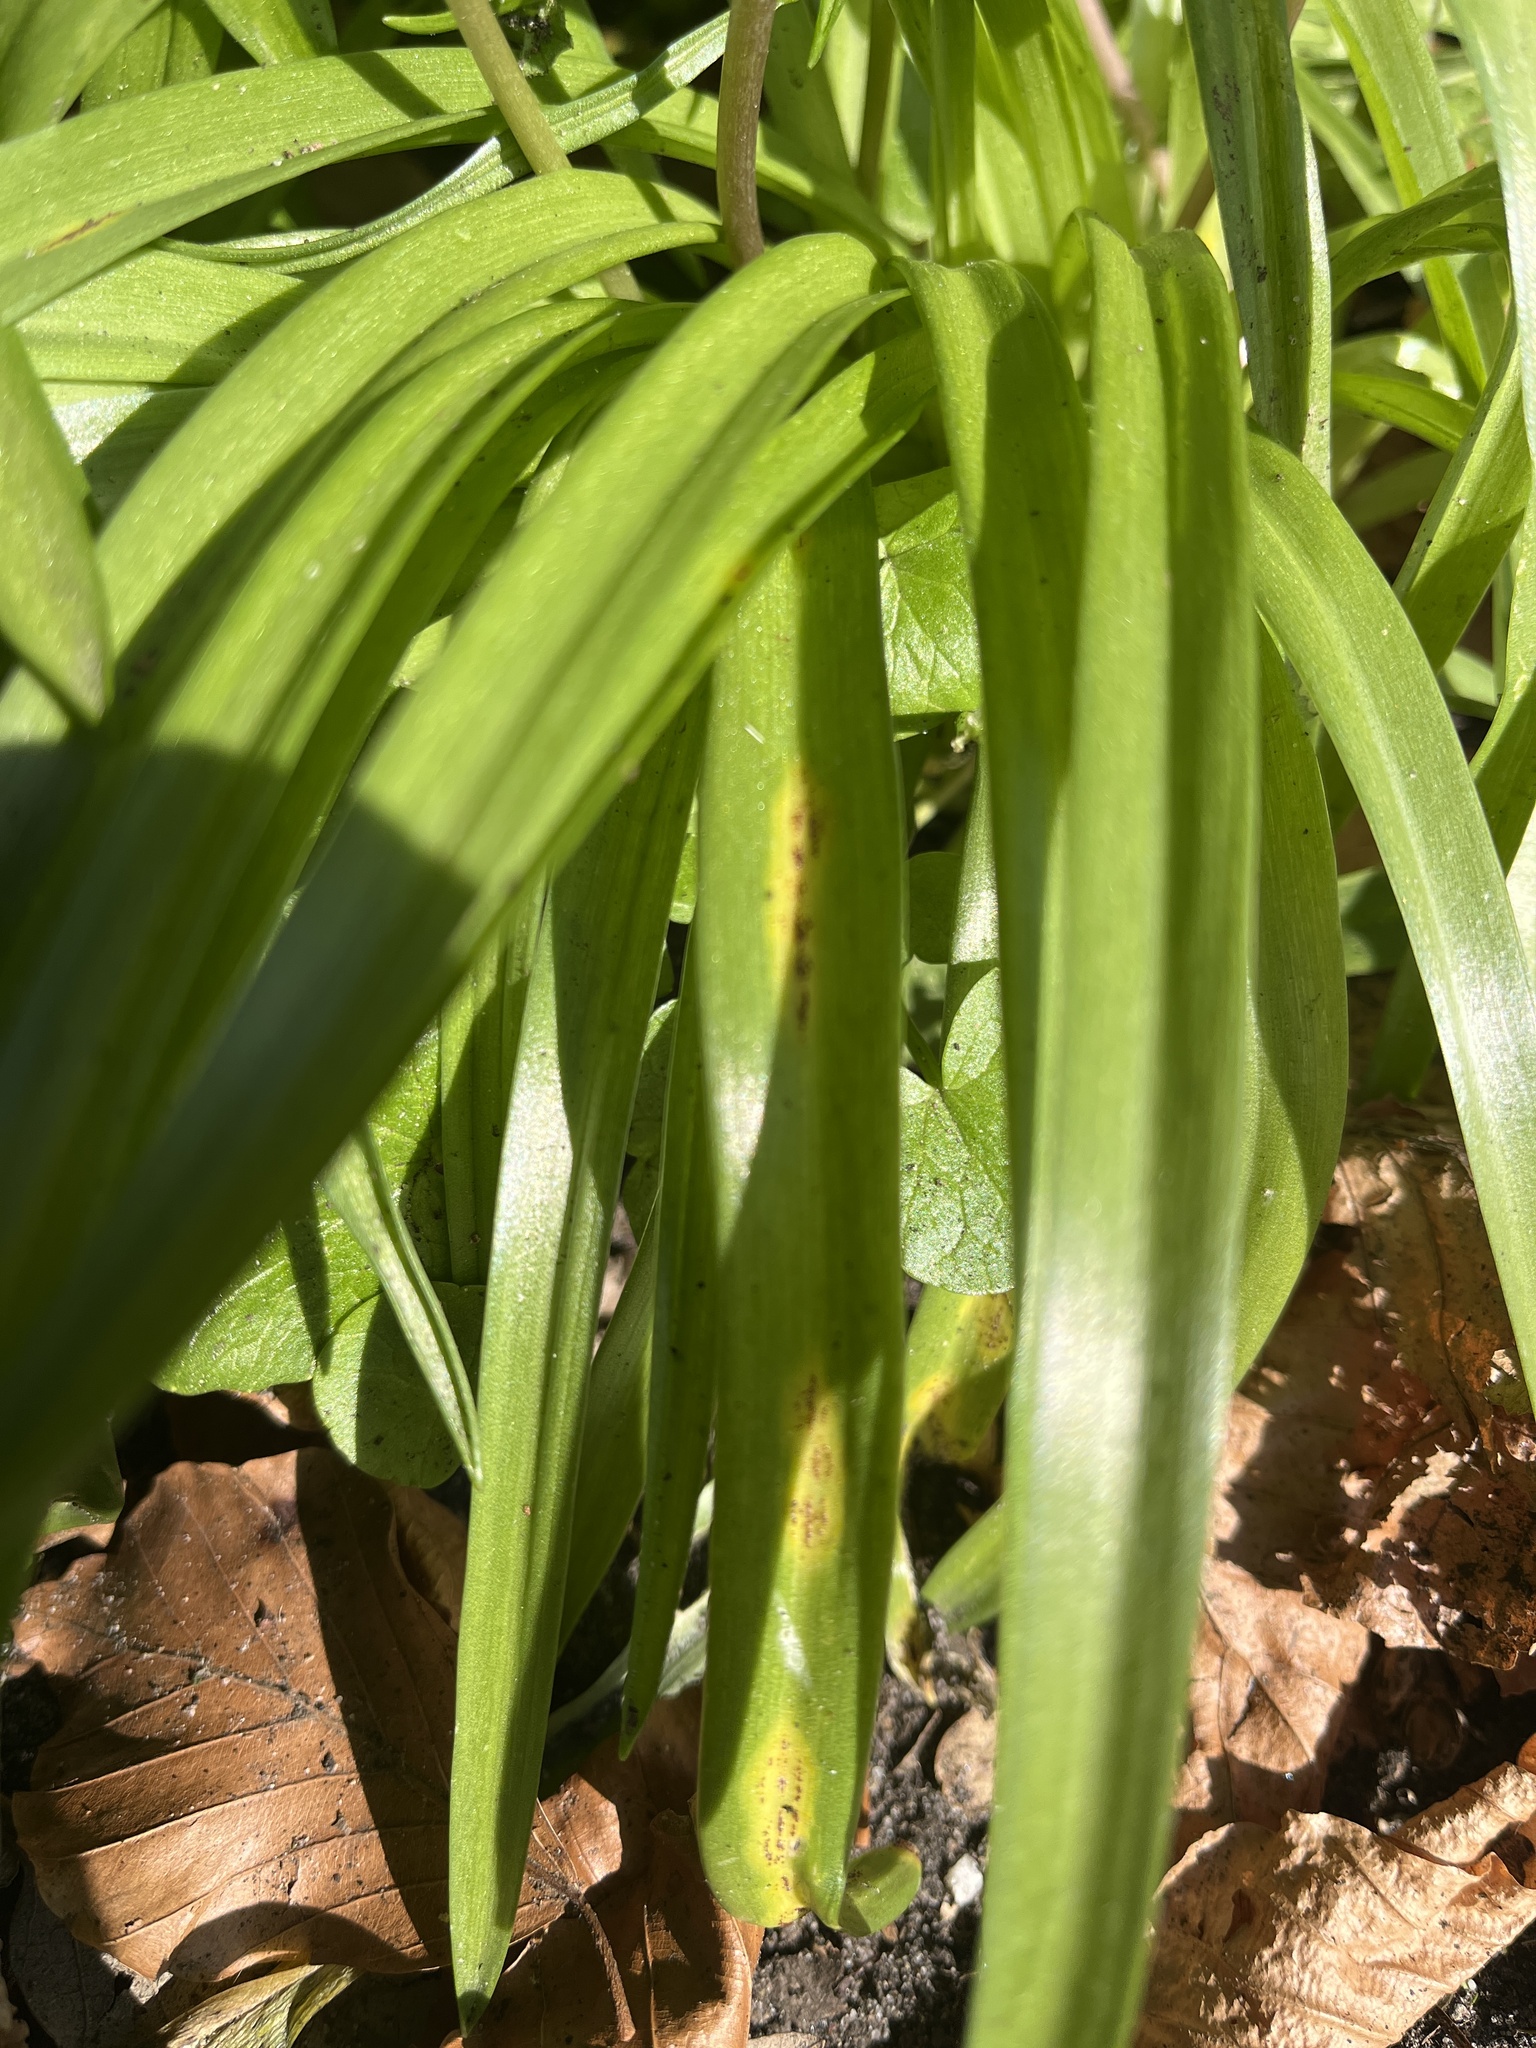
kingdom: Fungi
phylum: Basidiomycota
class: Pucciniomycetes
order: Pucciniales
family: Pucciniaceae
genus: Uromyces
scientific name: Uromyces hyacinthi
